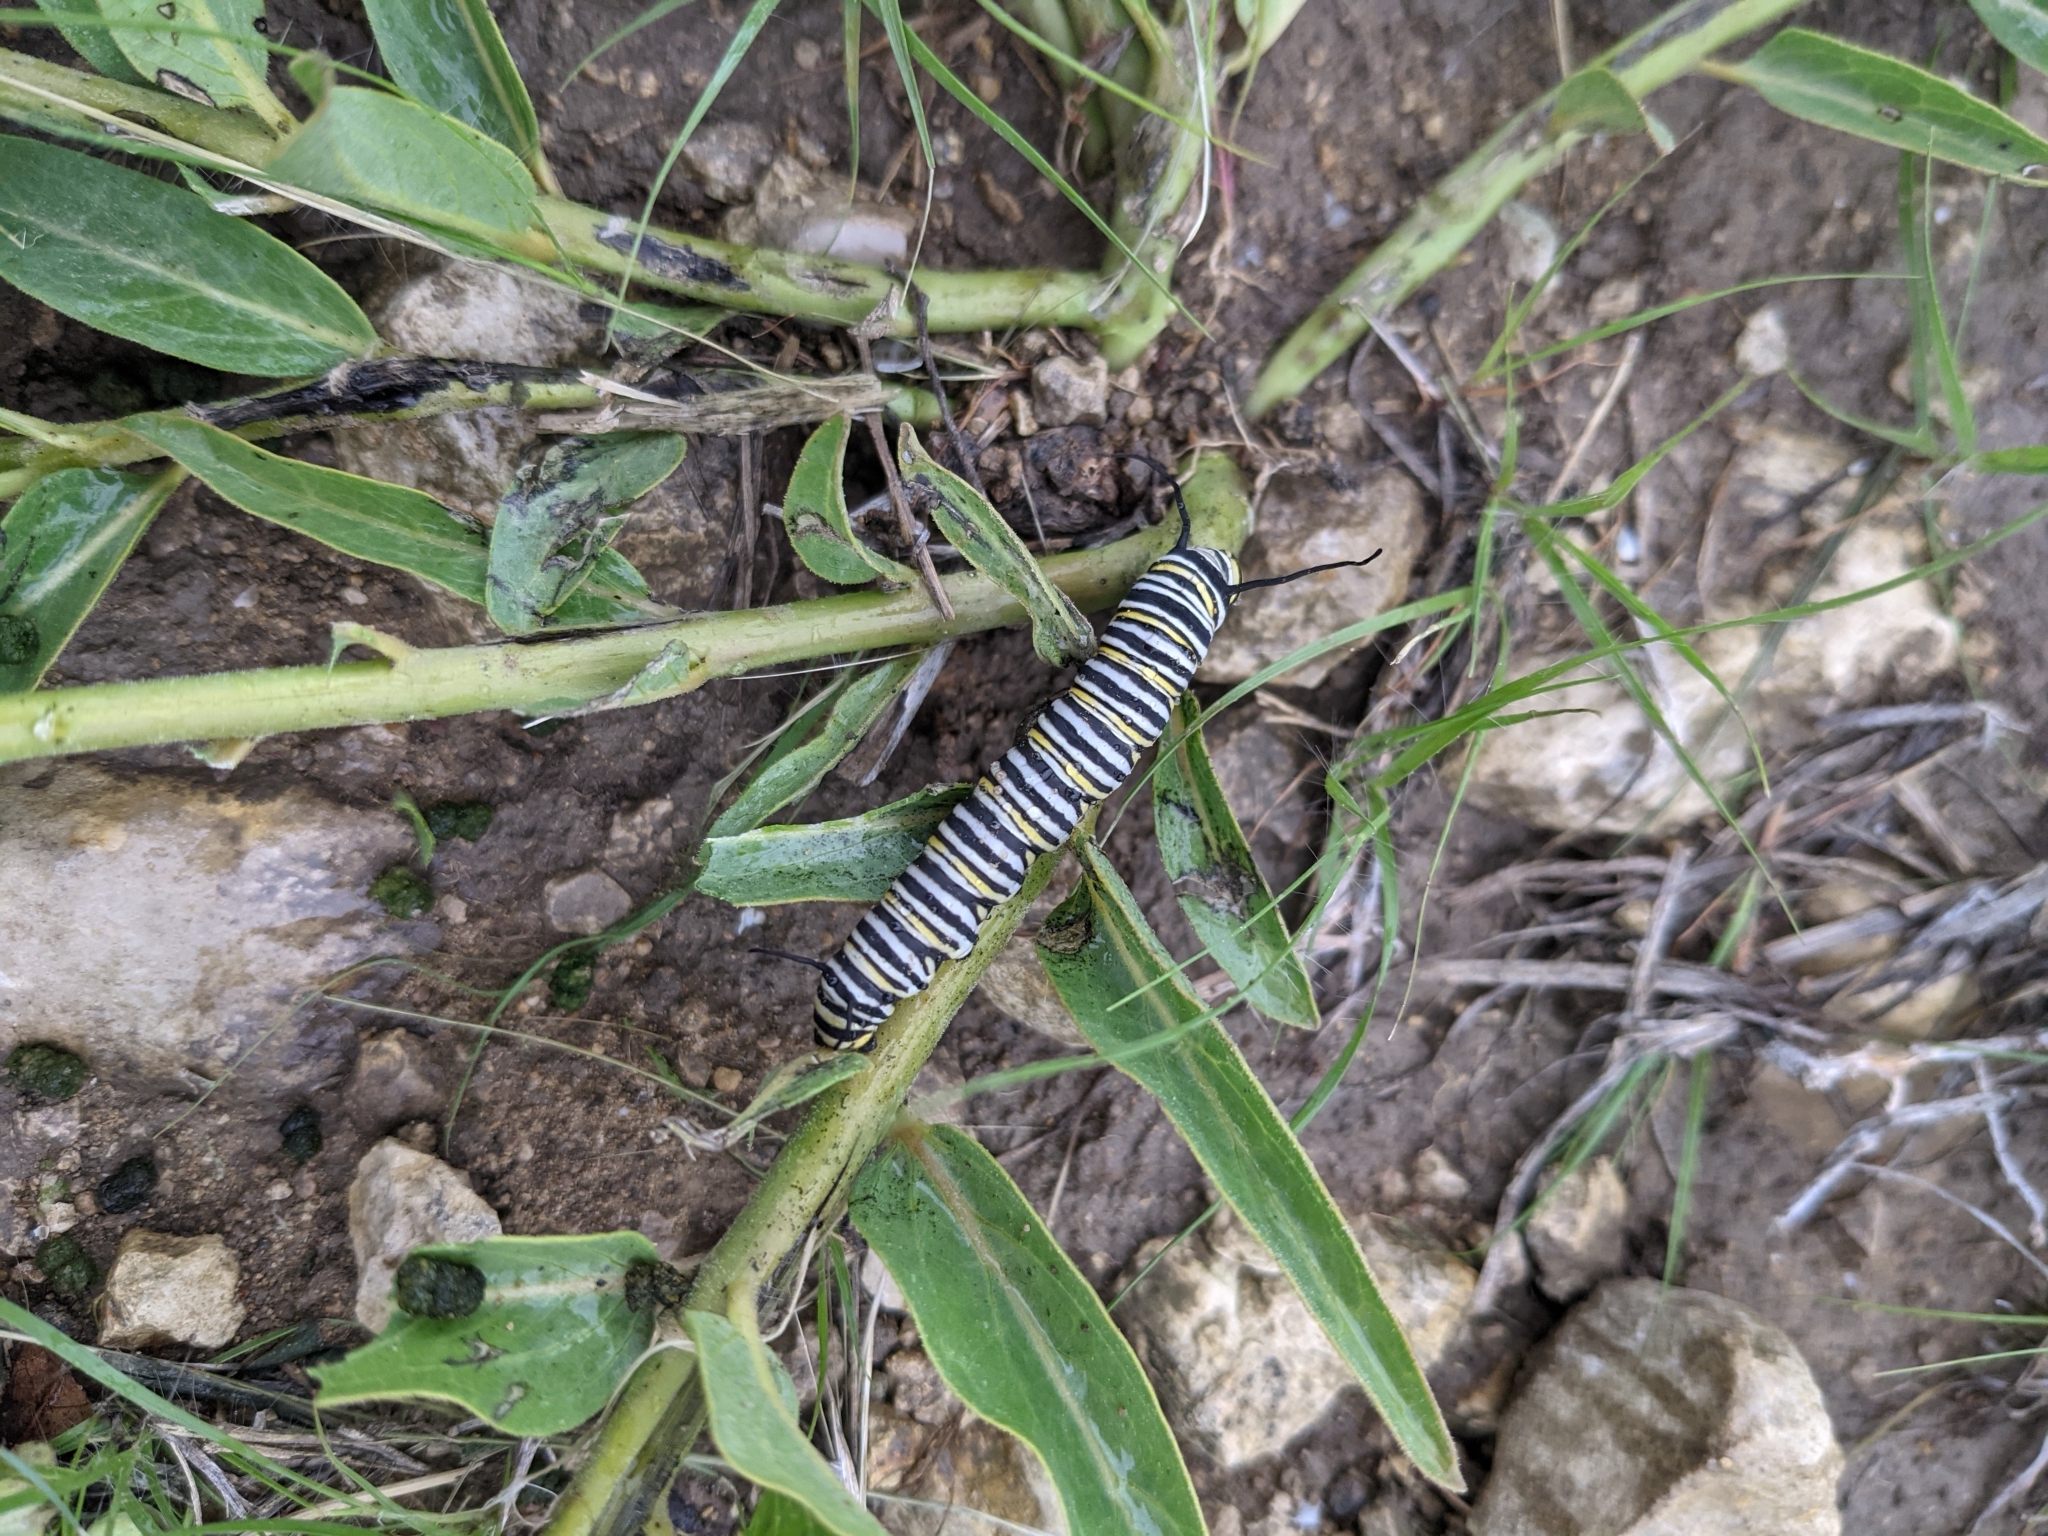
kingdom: Animalia
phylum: Arthropoda
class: Insecta
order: Lepidoptera
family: Nymphalidae
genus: Danaus
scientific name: Danaus plexippus
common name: Monarch
